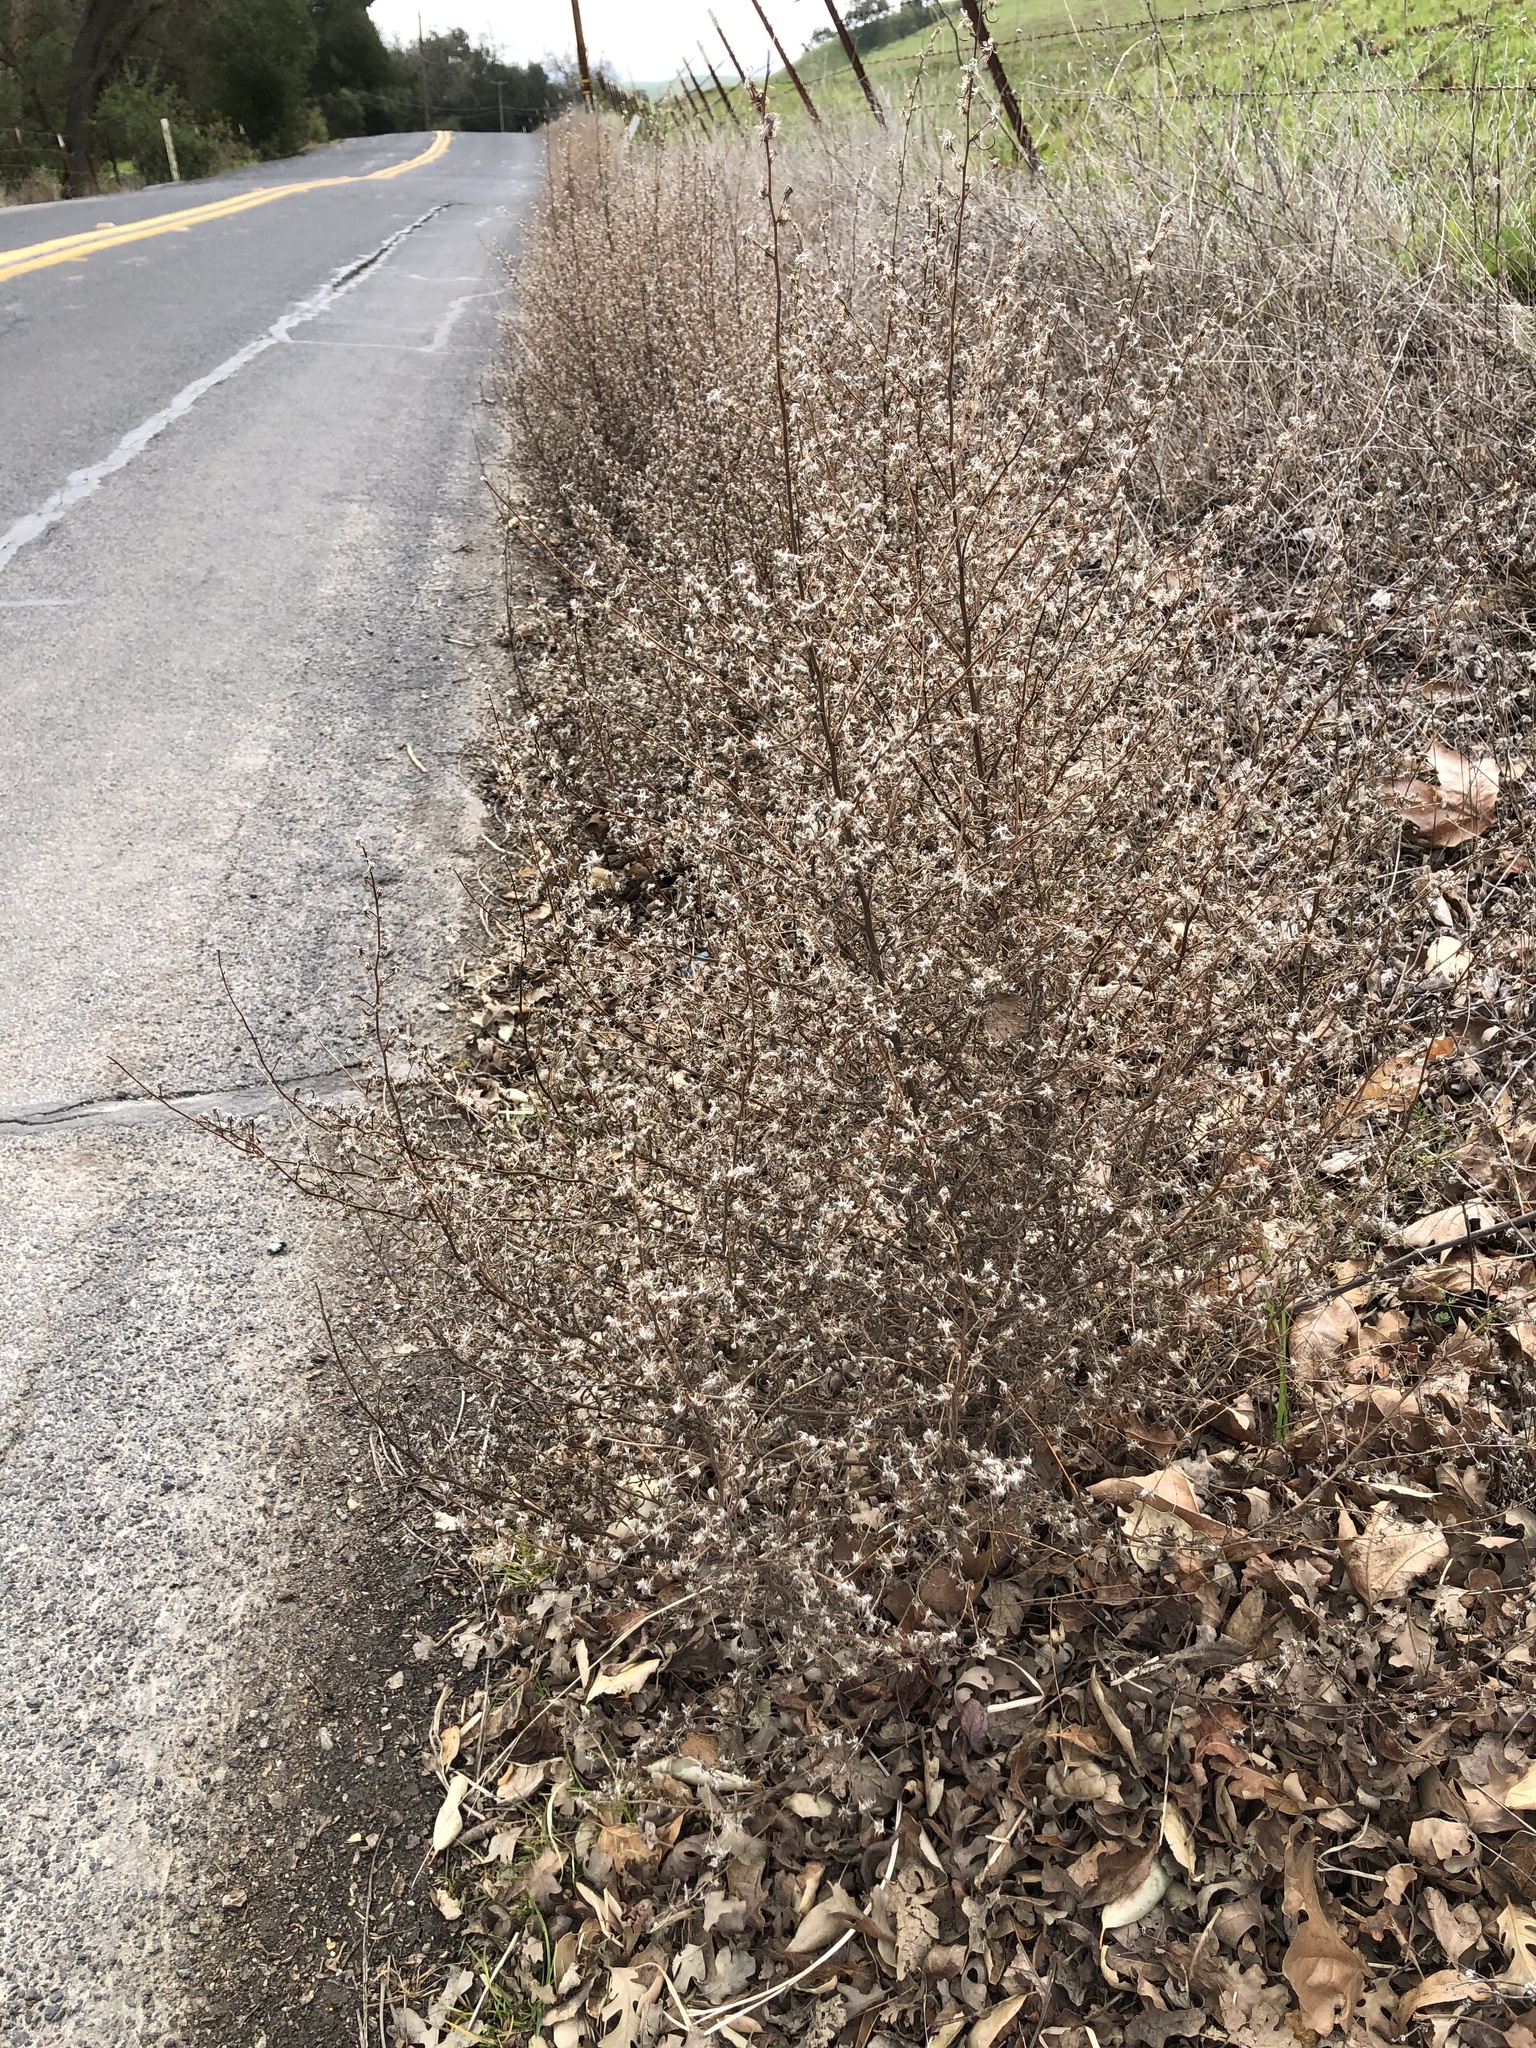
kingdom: Plantae
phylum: Tracheophyta
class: Magnoliopsida
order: Asterales
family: Asteraceae
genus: Dittrichia
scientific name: Dittrichia graveolens
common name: Stinking fleabane
